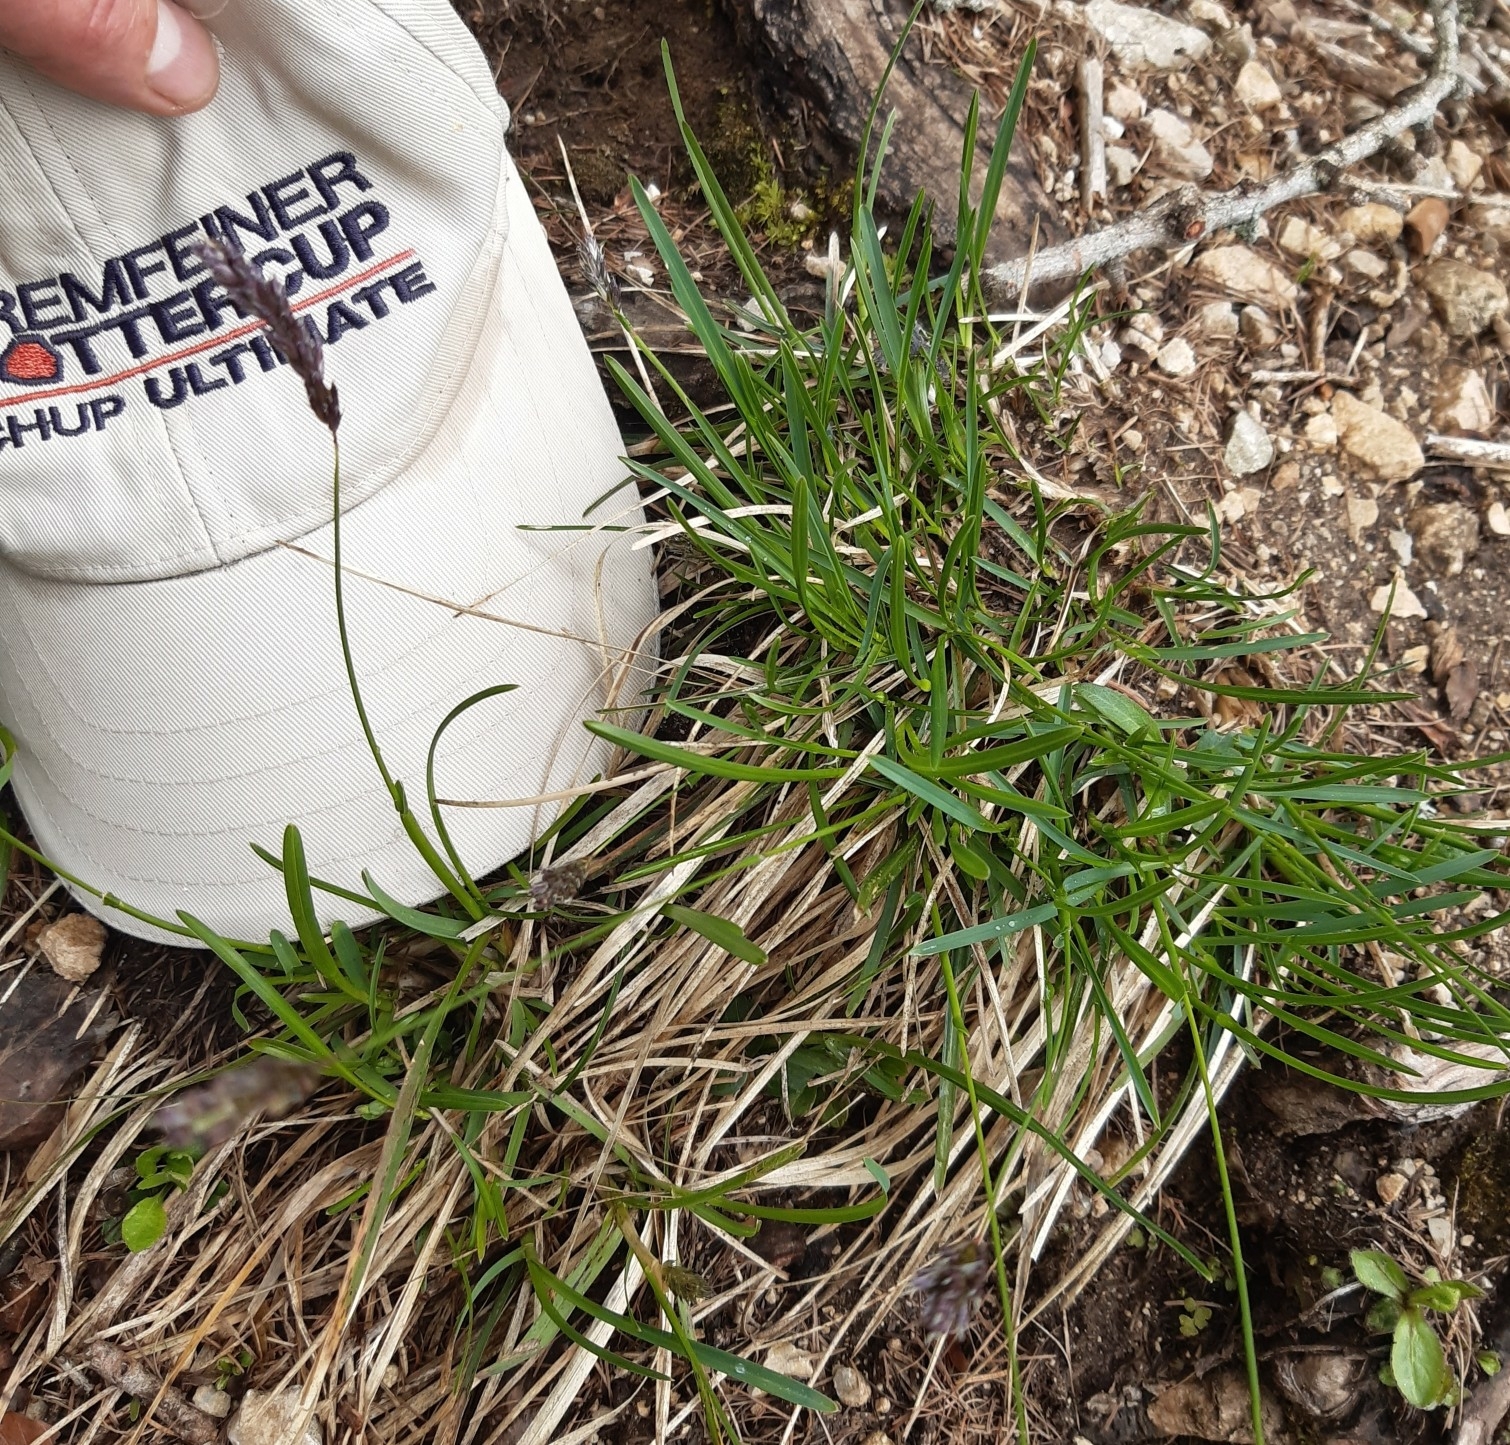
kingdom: Plantae
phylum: Tracheophyta
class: Liliopsida
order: Poales
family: Poaceae
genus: Sesleria
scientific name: Sesleria albicans
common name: Blue moor-grass
